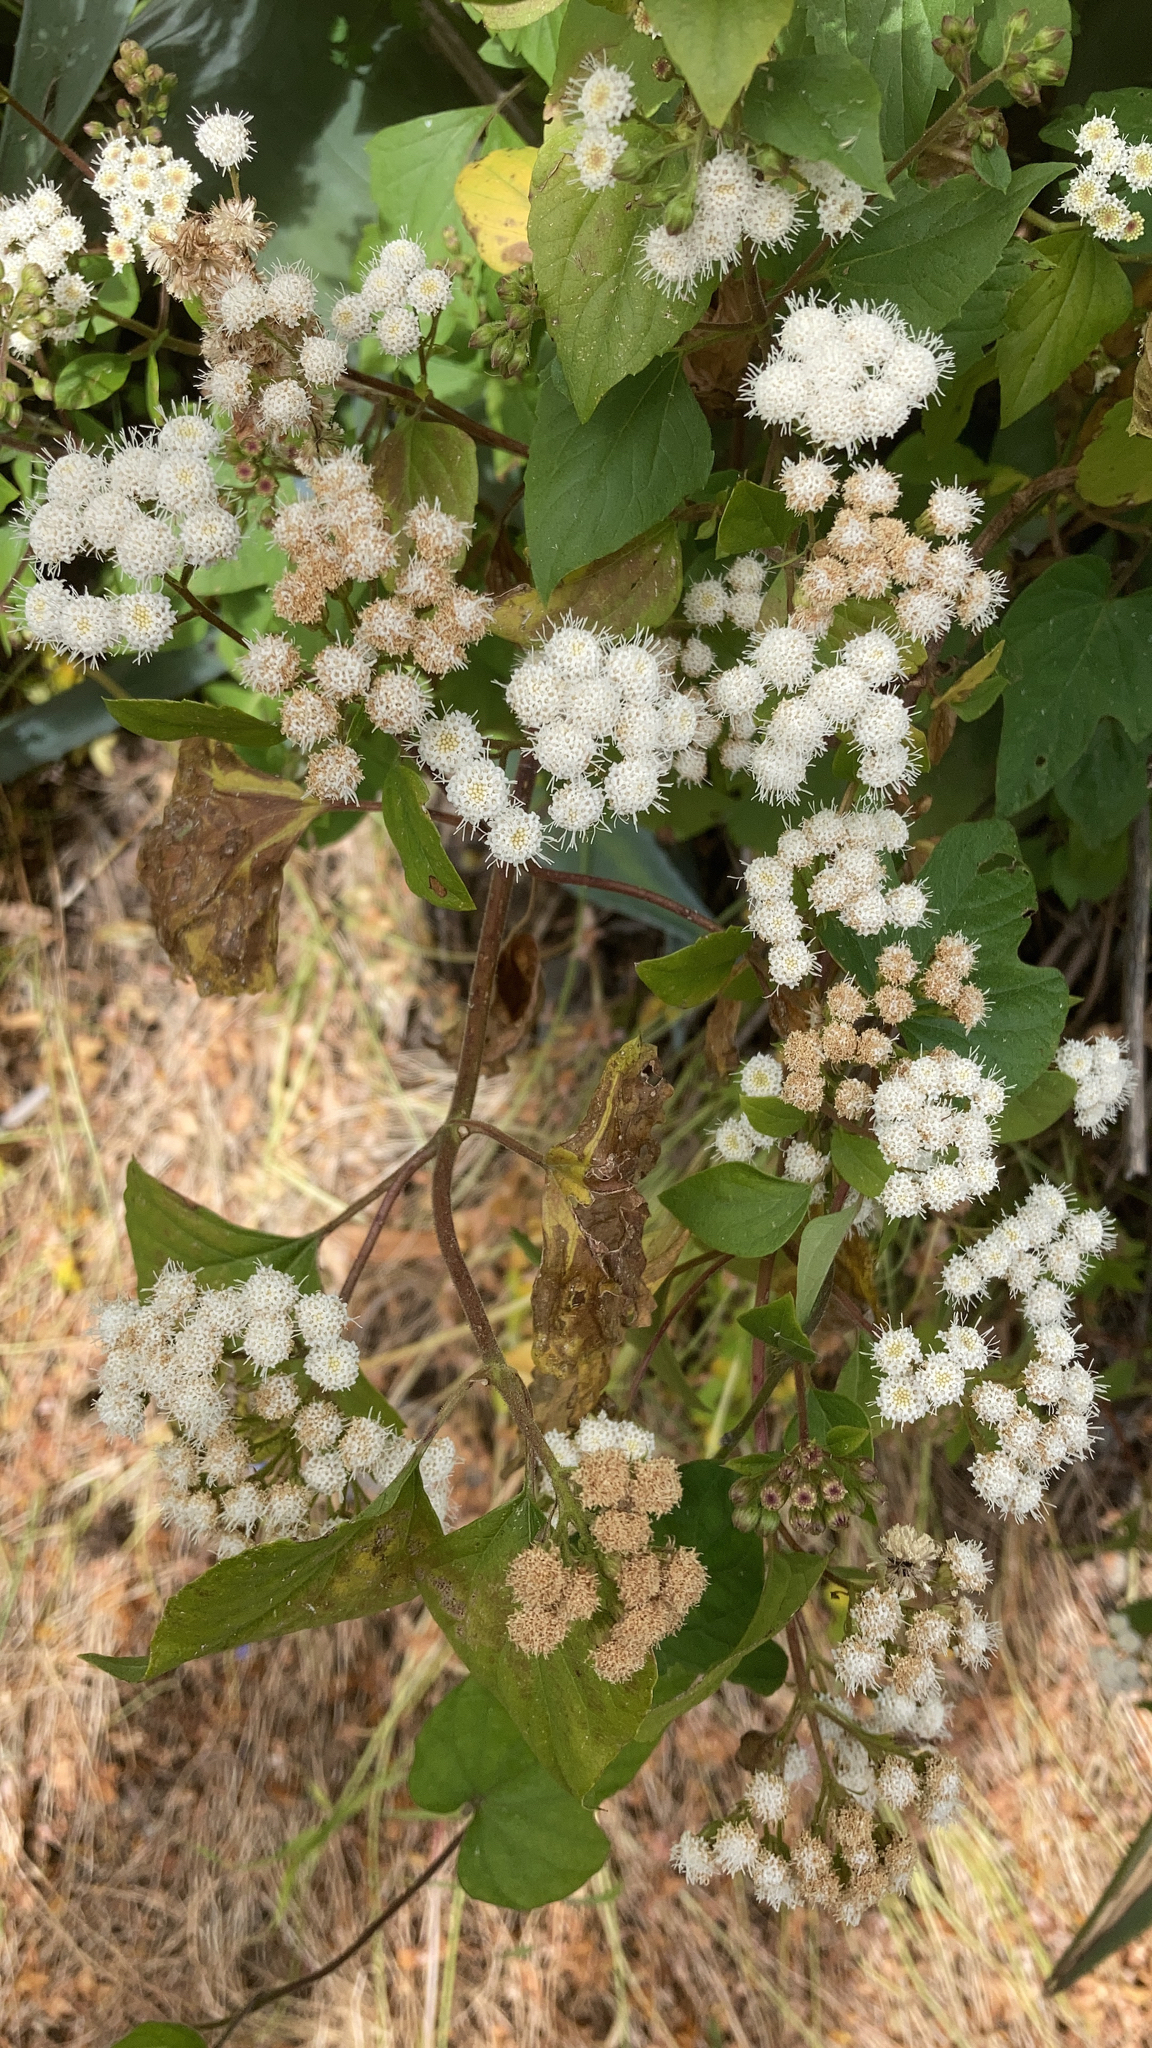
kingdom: Plantae
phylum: Tracheophyta
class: Magnoliopsida
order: Asterales
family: Asteraceae
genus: Ageratina
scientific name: Ageratina adenophora
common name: Sticky snakeroot
